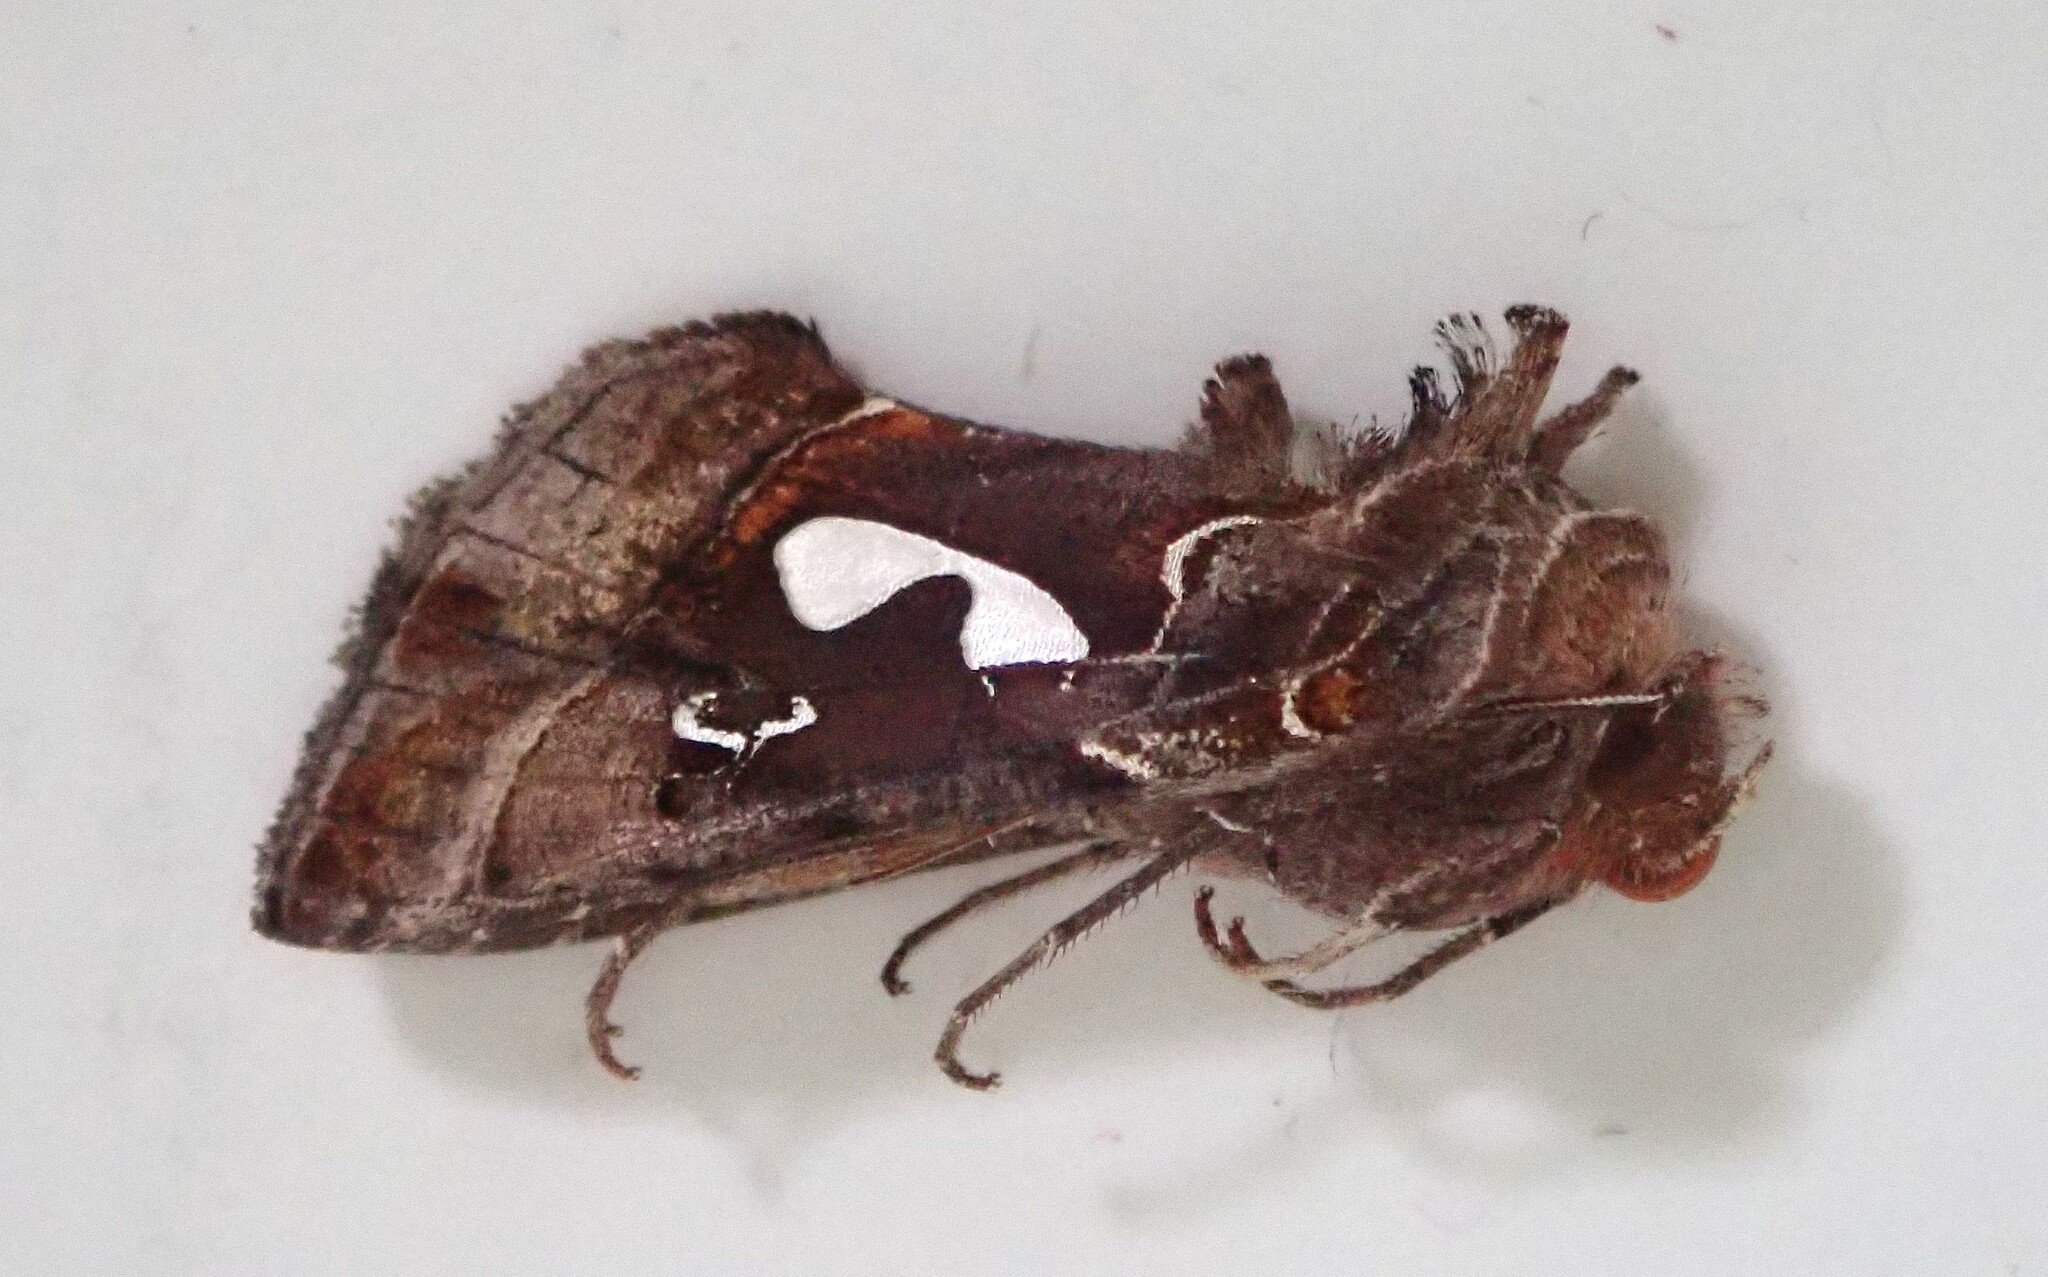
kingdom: Animalia
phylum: Arthropoda
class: Insecta
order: Lepidoptera
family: Noctuidae
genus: Megalographa
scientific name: Megalographa biloba
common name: Cutworm
